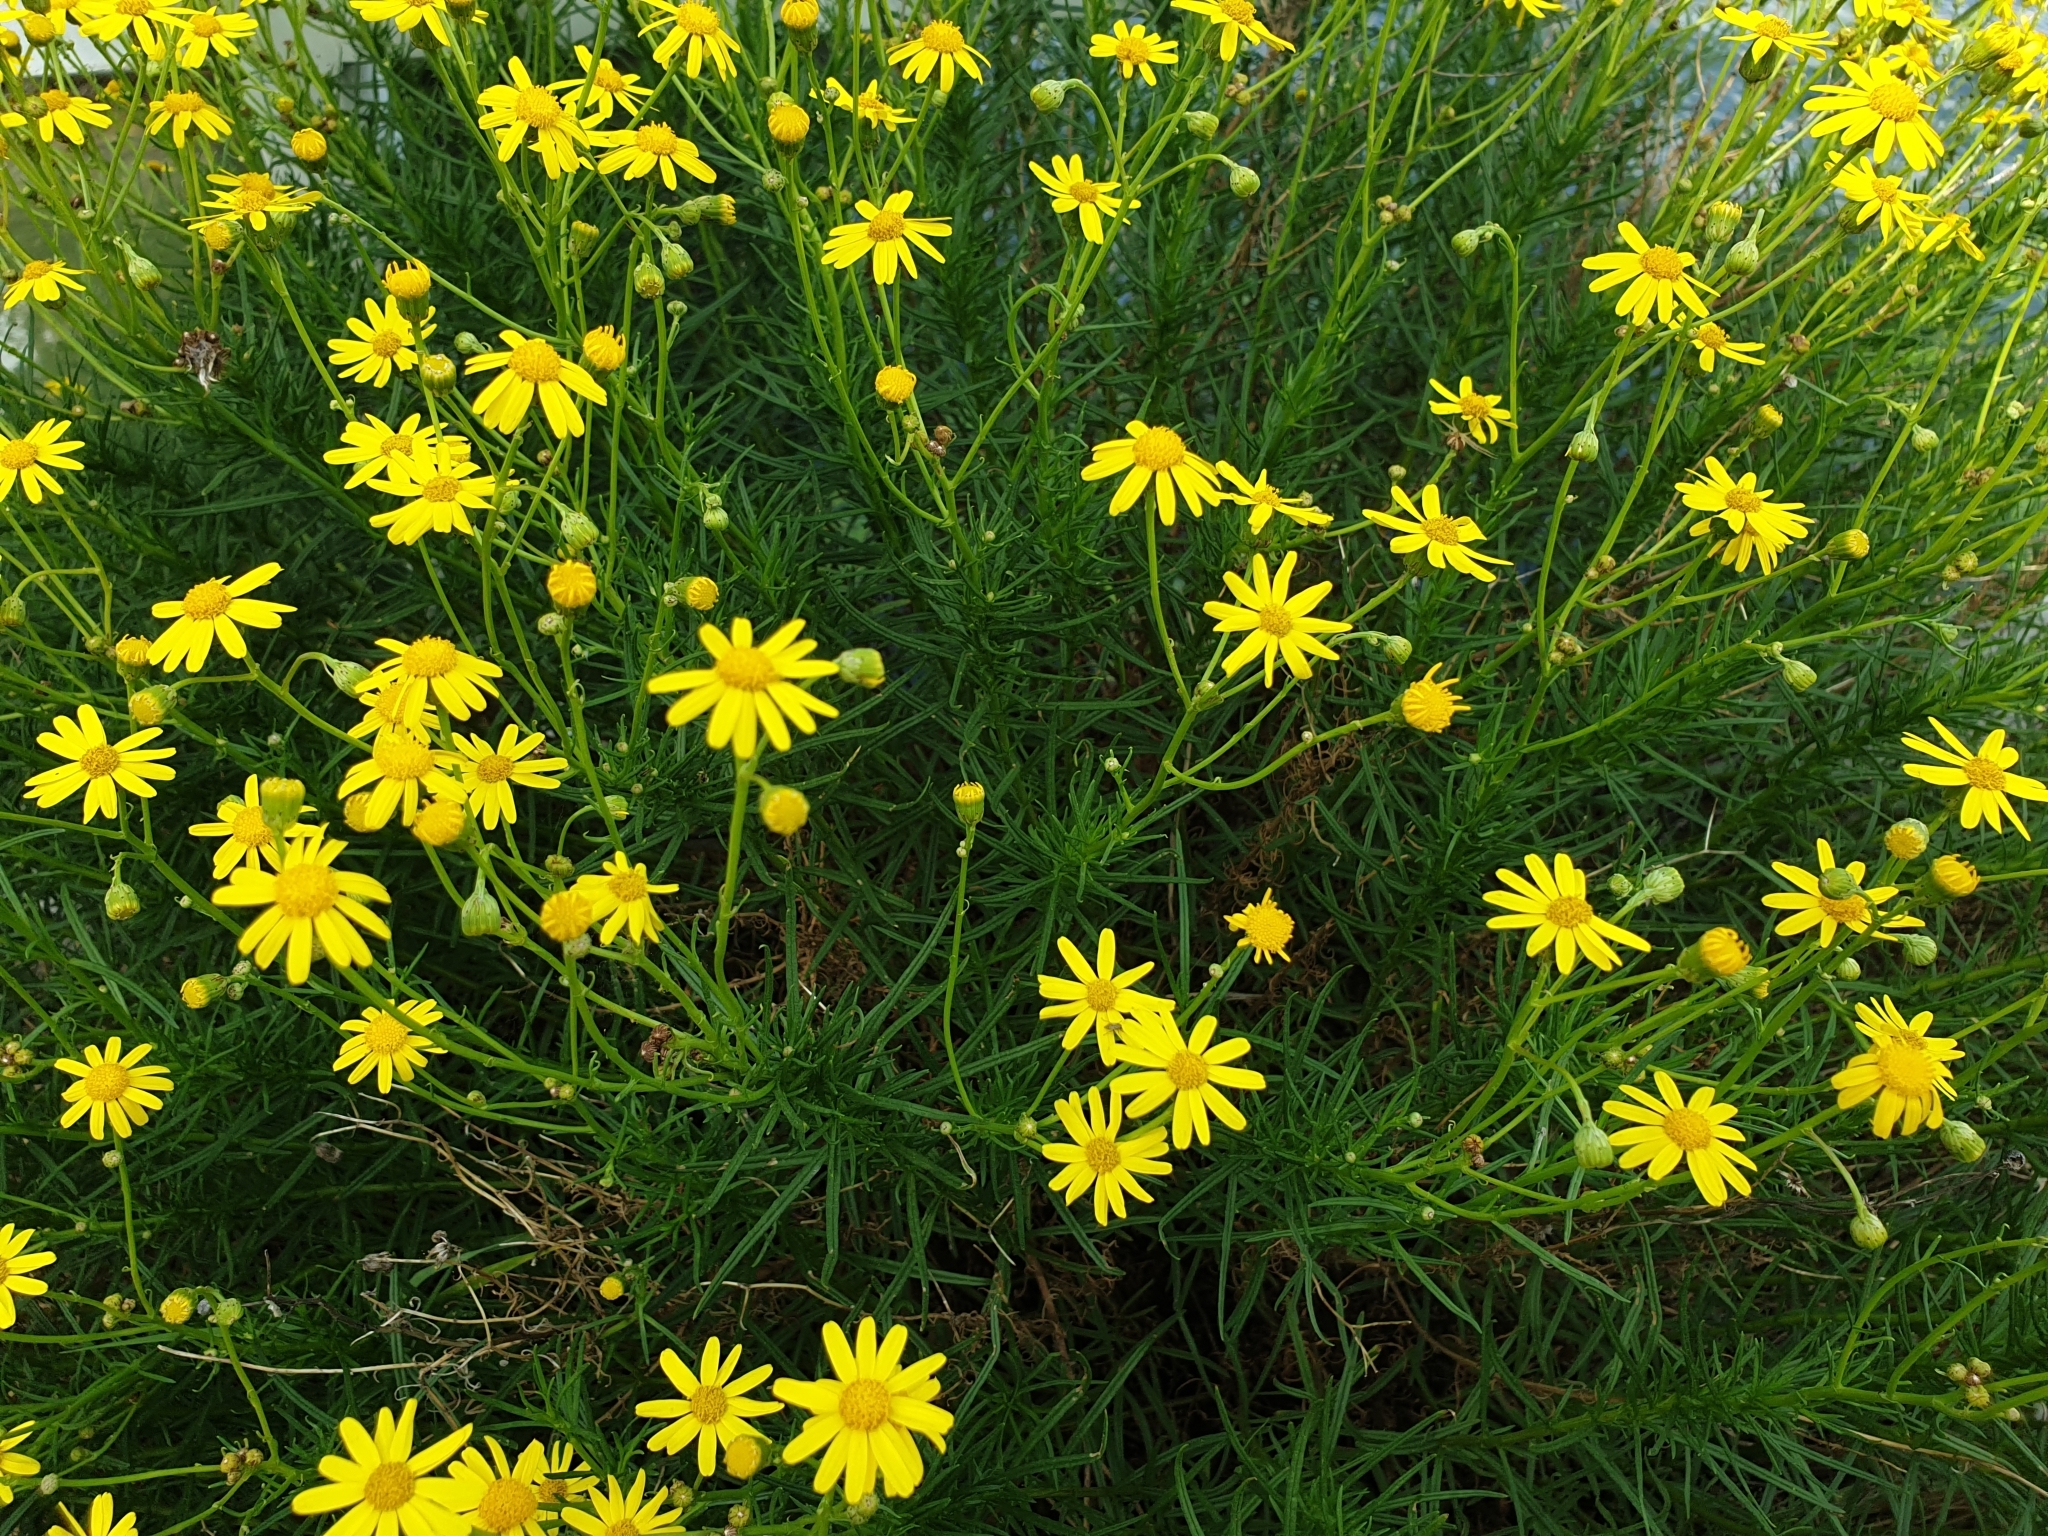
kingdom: Plantae
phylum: Tracheophyta
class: Magnoliopsida
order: Asterales
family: Asteraceae
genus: Senecio
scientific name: Senecio inaequidens
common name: Narrow-leaved ragwort
